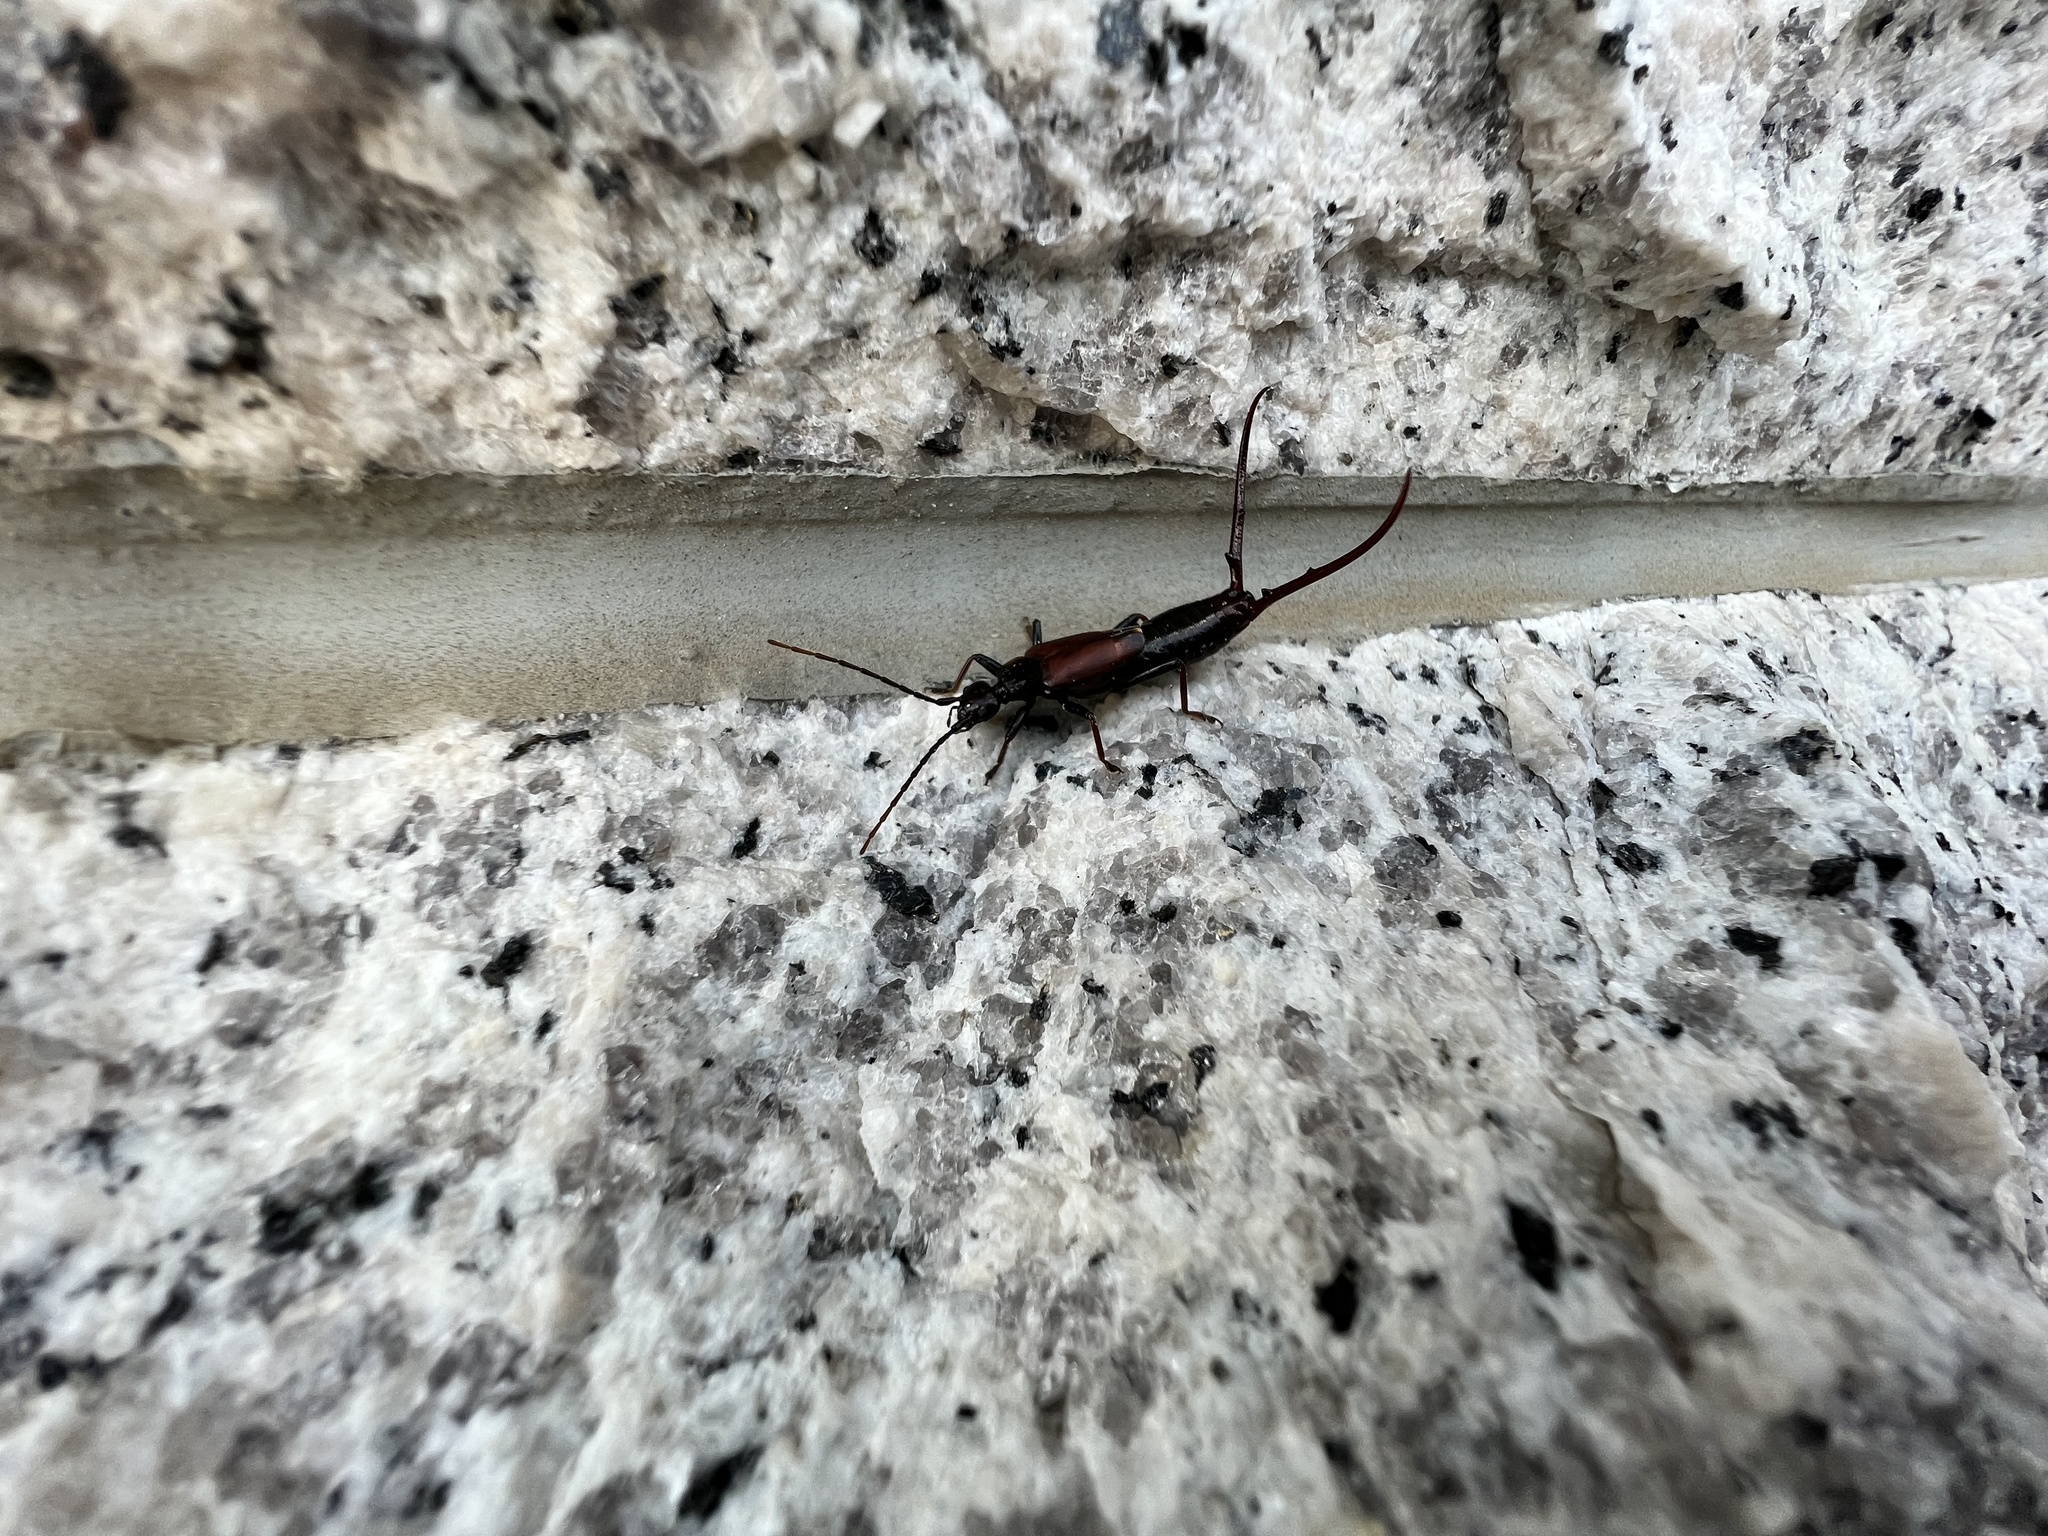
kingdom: Animalia
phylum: Arthropoda
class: Insecta
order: Dermaptera
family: Forficulidae
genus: Timomenus
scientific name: Timomenus komarovi
